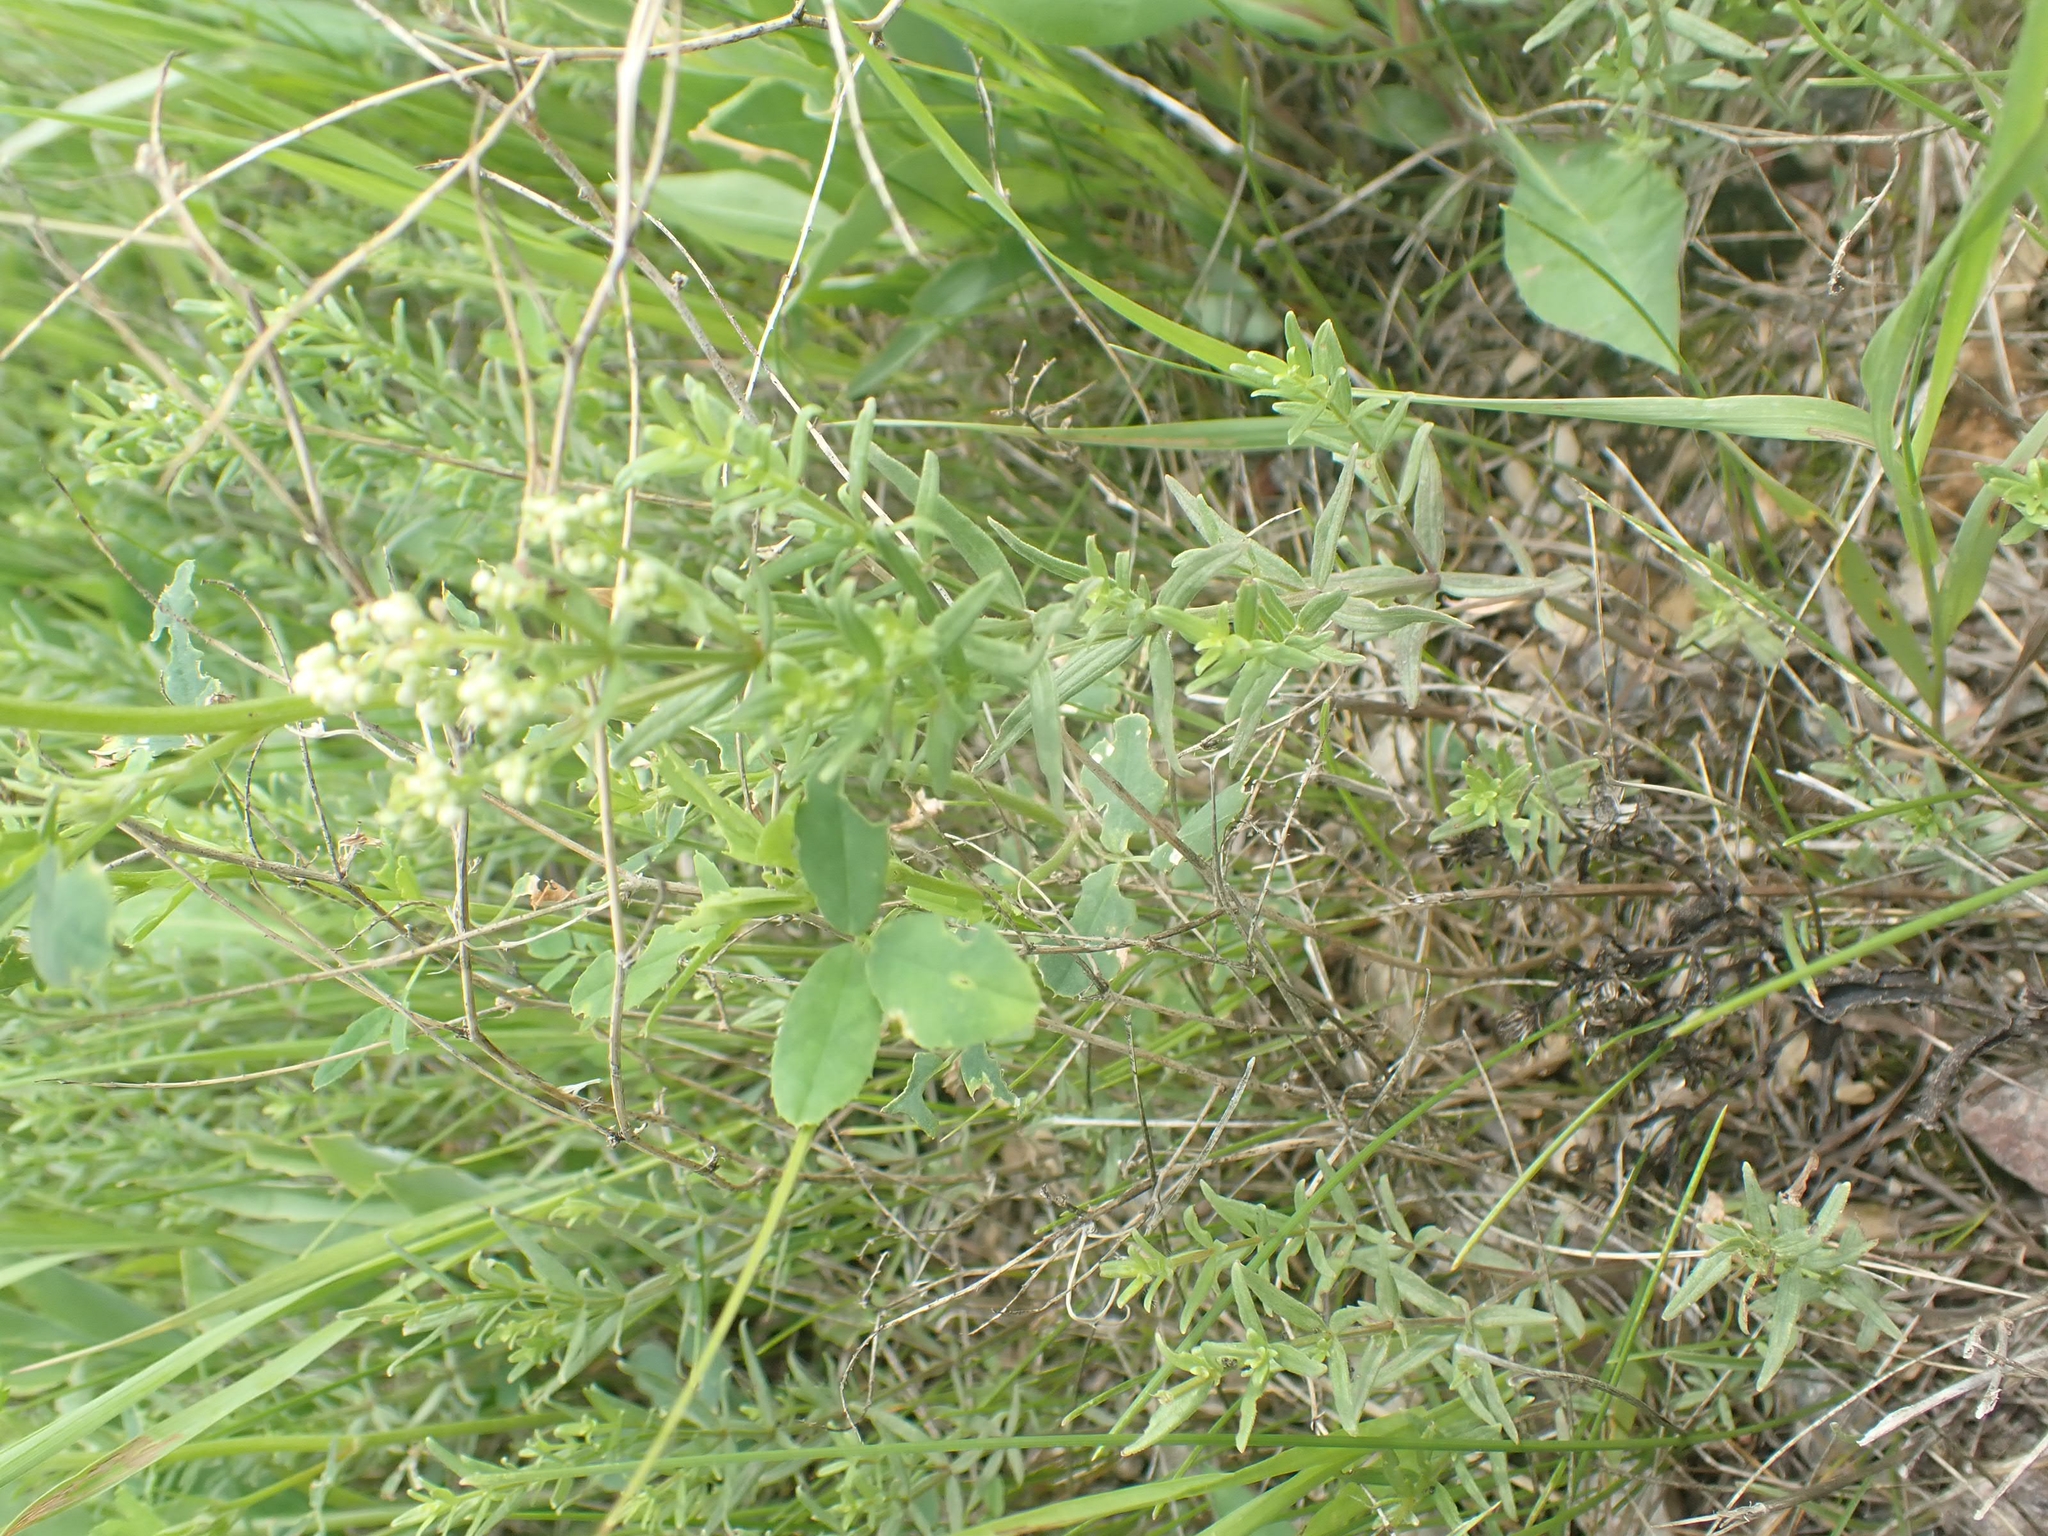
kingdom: Plantae
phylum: Tracheophyta
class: Magnoliopsida
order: Gentianales
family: Rubiaceae
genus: Galium
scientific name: Galium boreale
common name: Northern bedstraw
